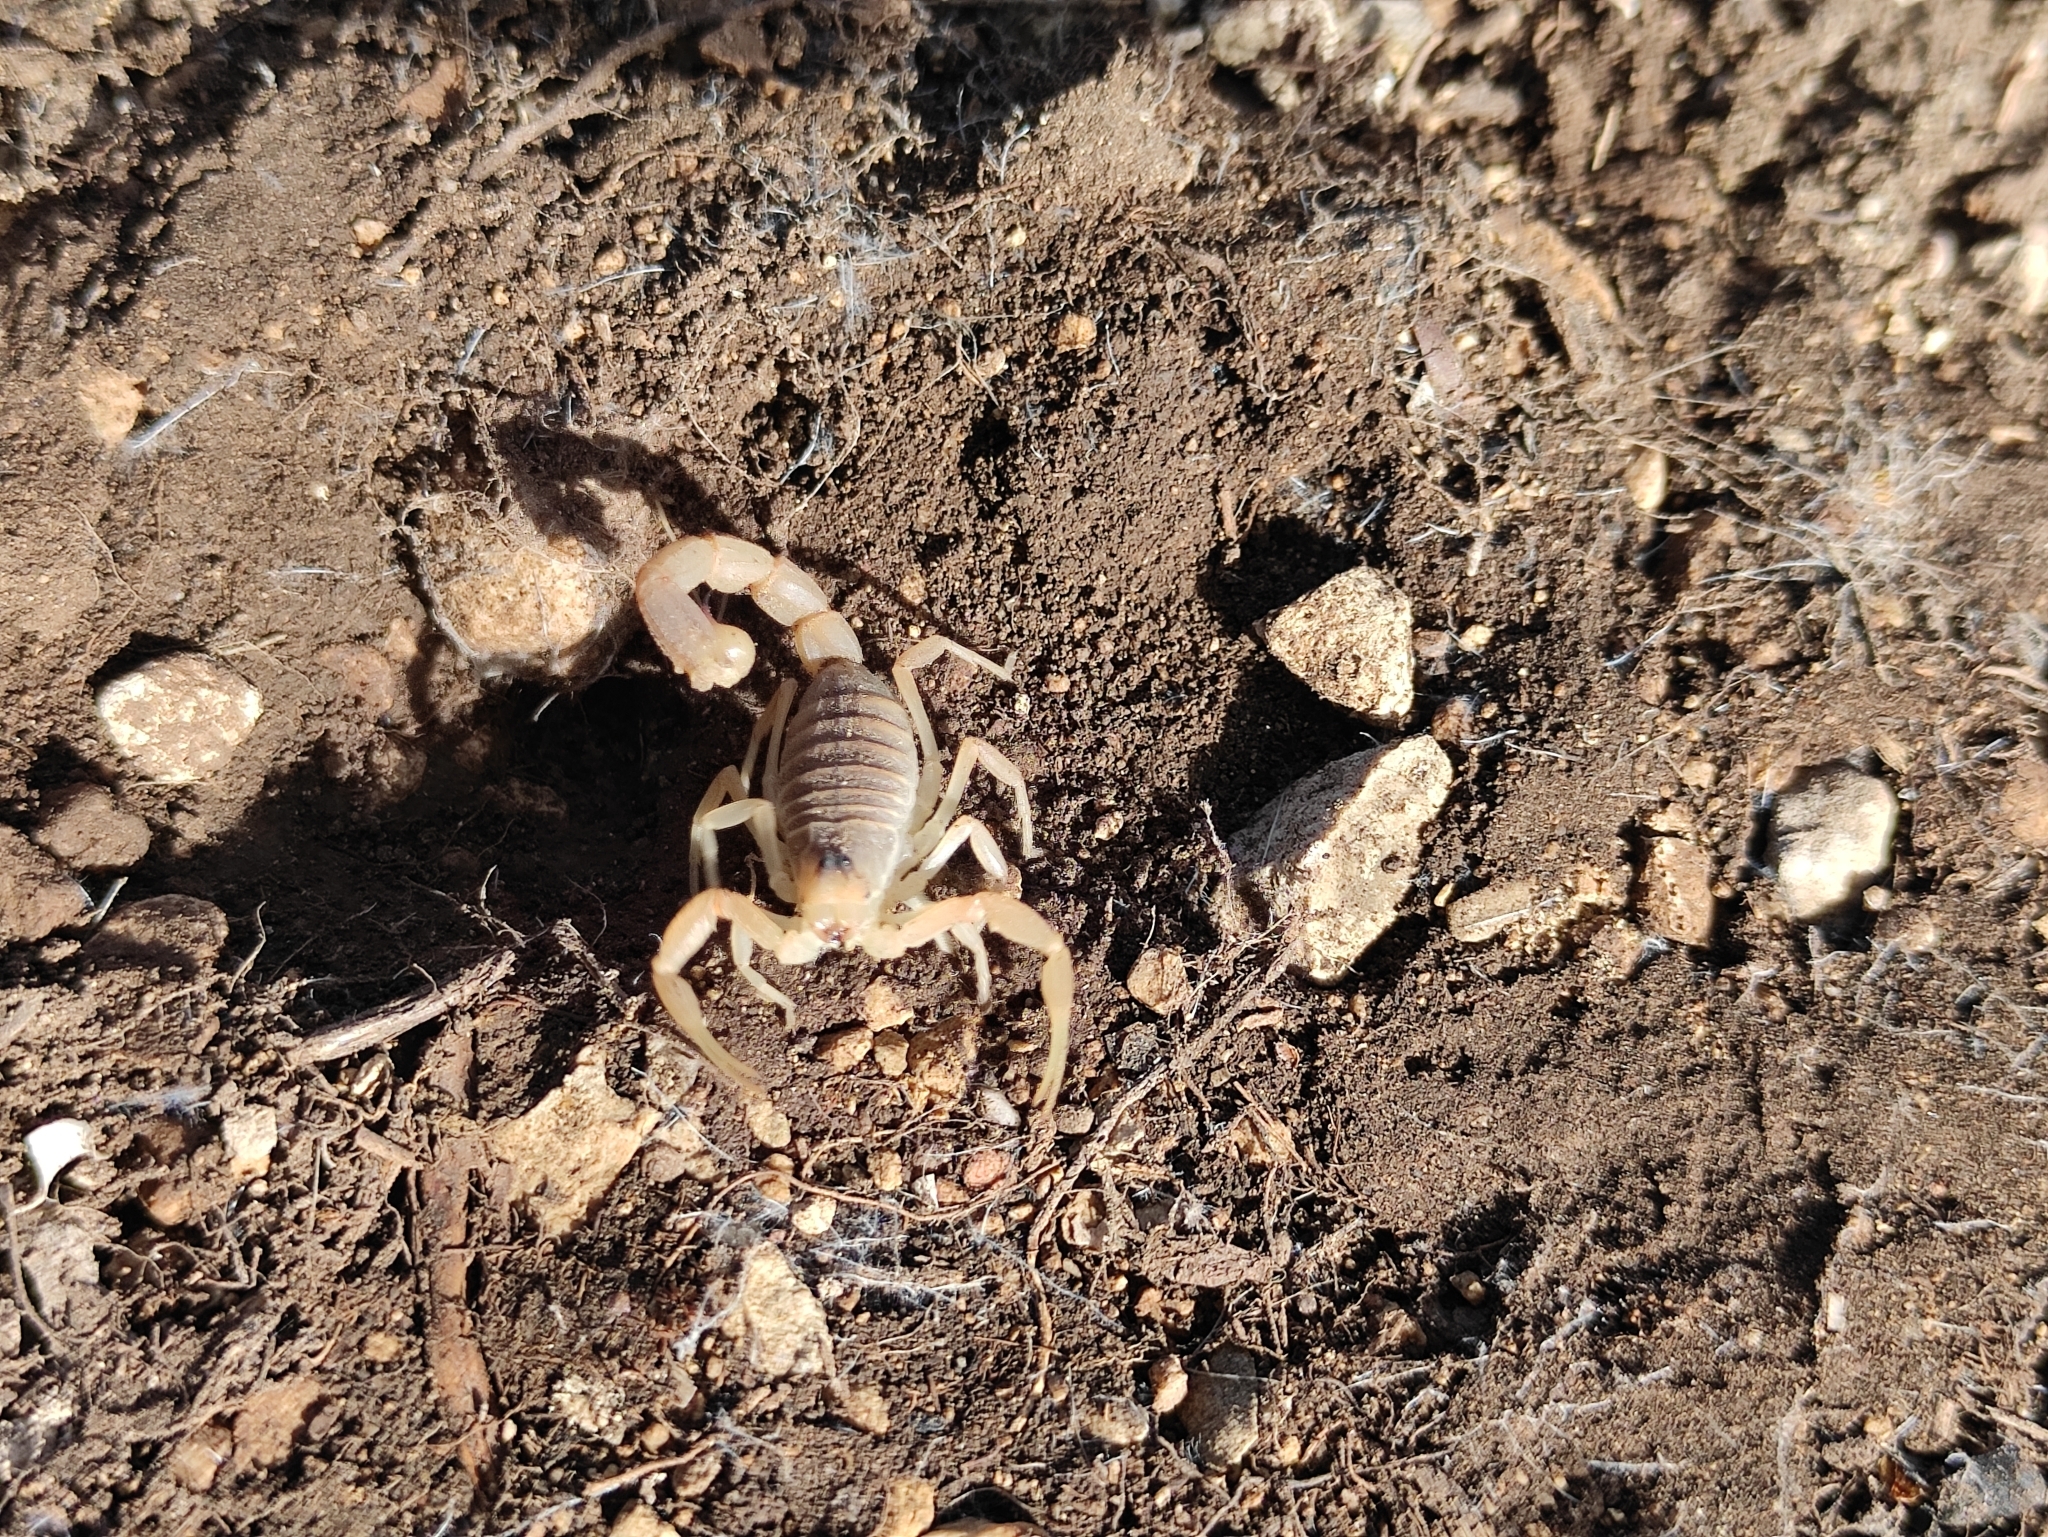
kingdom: Animalia
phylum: Arthropoda
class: Arachnida
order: Scorpiones
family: Buthidae
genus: Buthus
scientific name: Buthus balmensis
